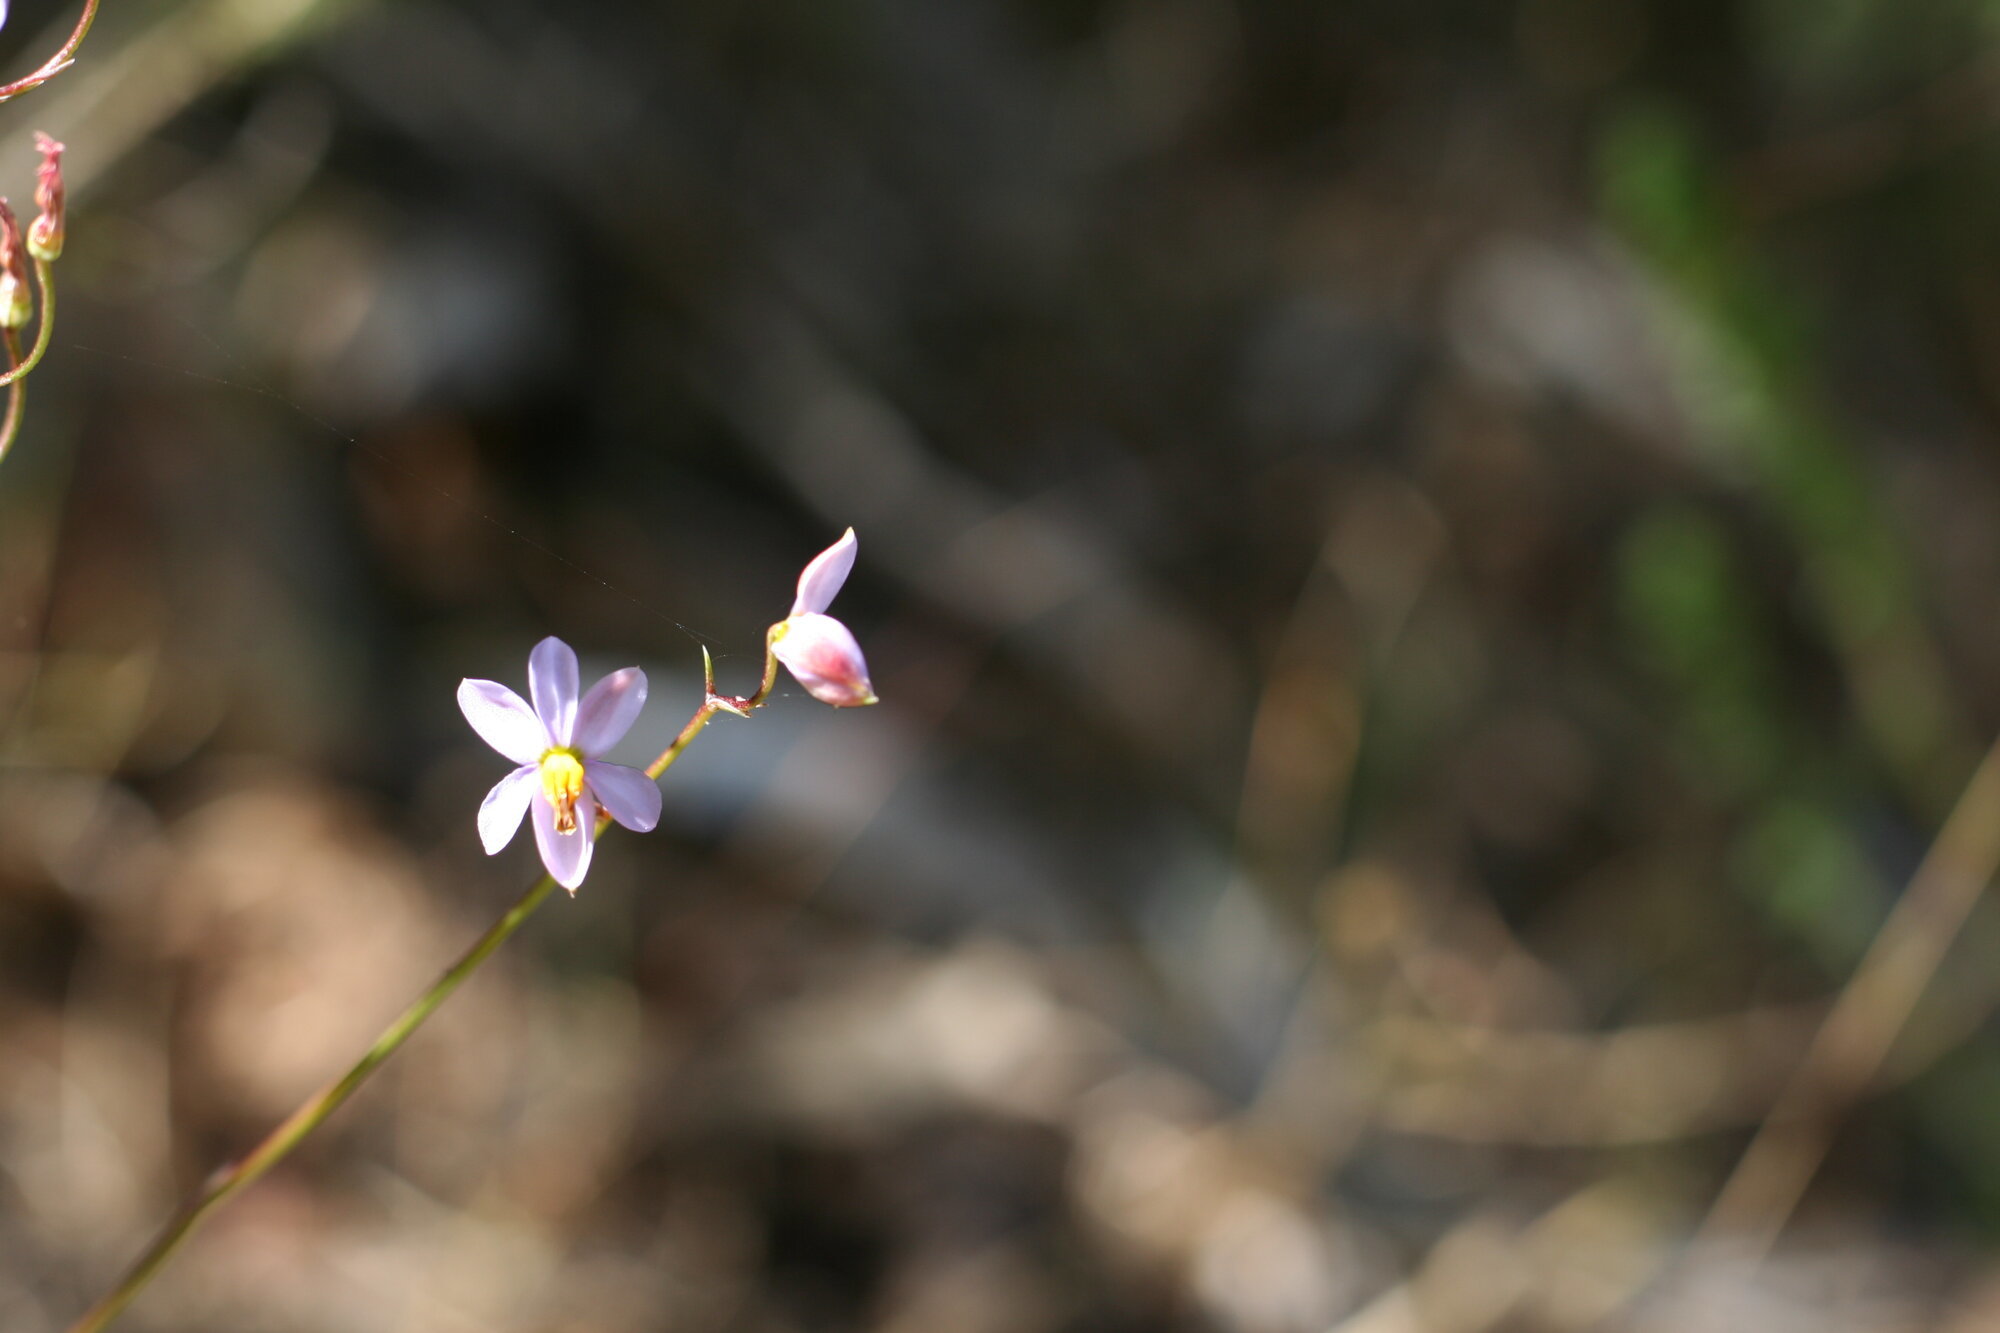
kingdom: Plantae
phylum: Tracheophyta
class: Liliopsida
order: Asparagales
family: Tecophilaeaceae
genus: Cyanella
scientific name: Cyanella hyacinthoides
